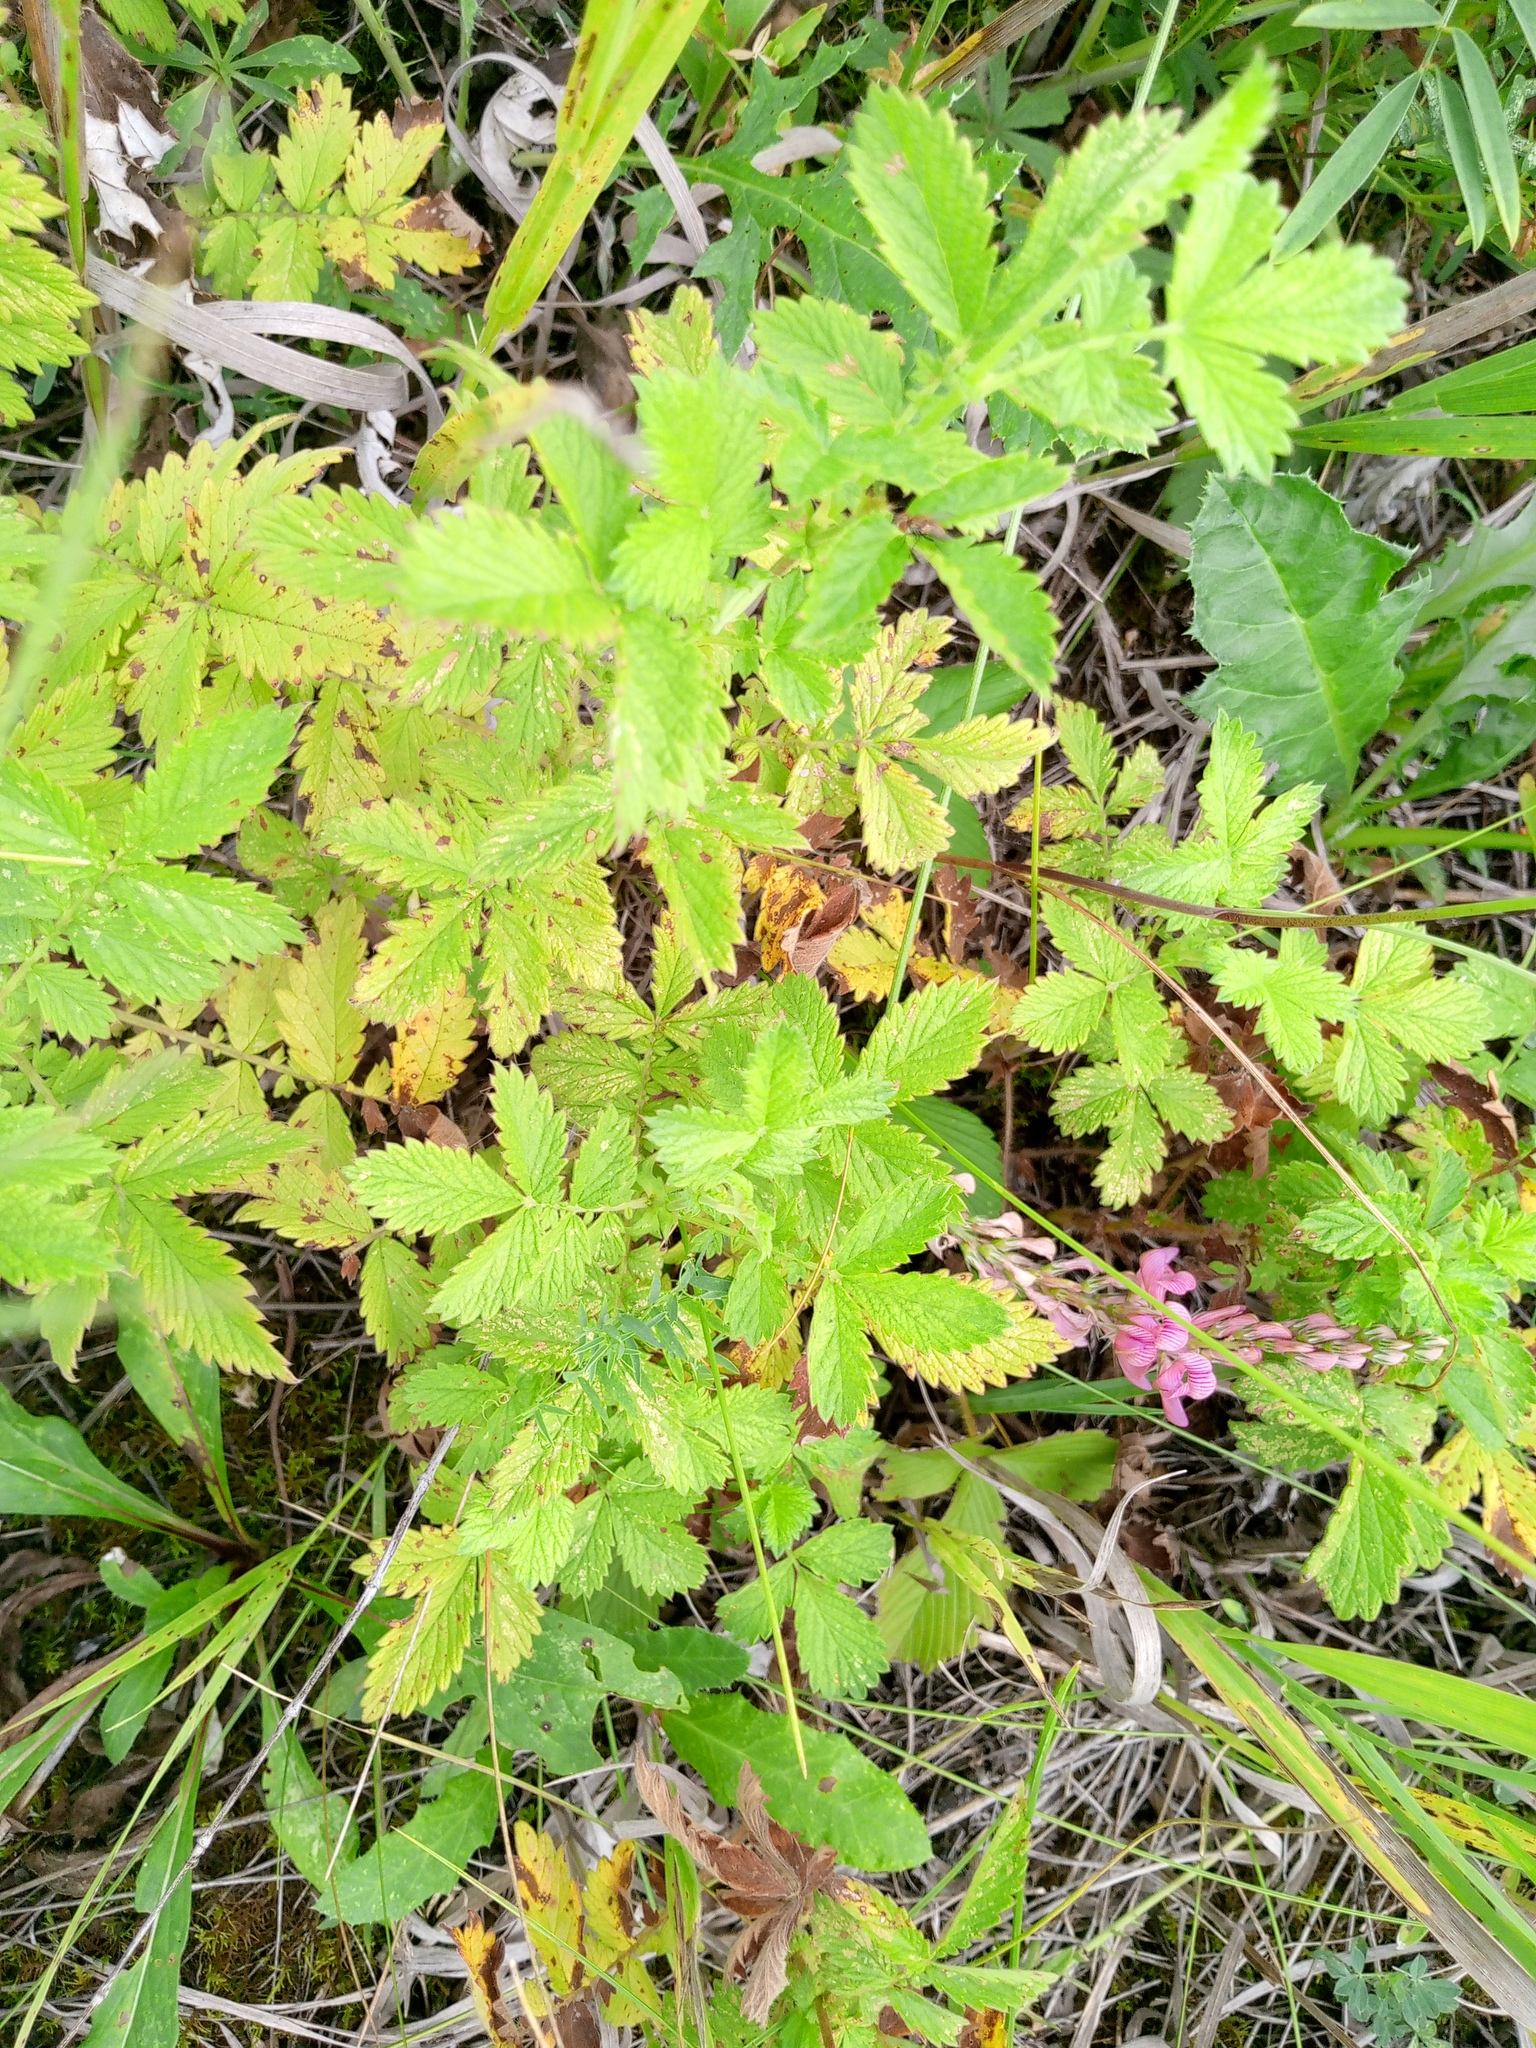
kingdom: Plantae
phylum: Tracheophyta
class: Magnoliopsida
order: Rosales
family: Rosaceae
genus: Agrimonia
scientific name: Agrimonia eupatoria
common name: Agrimony
